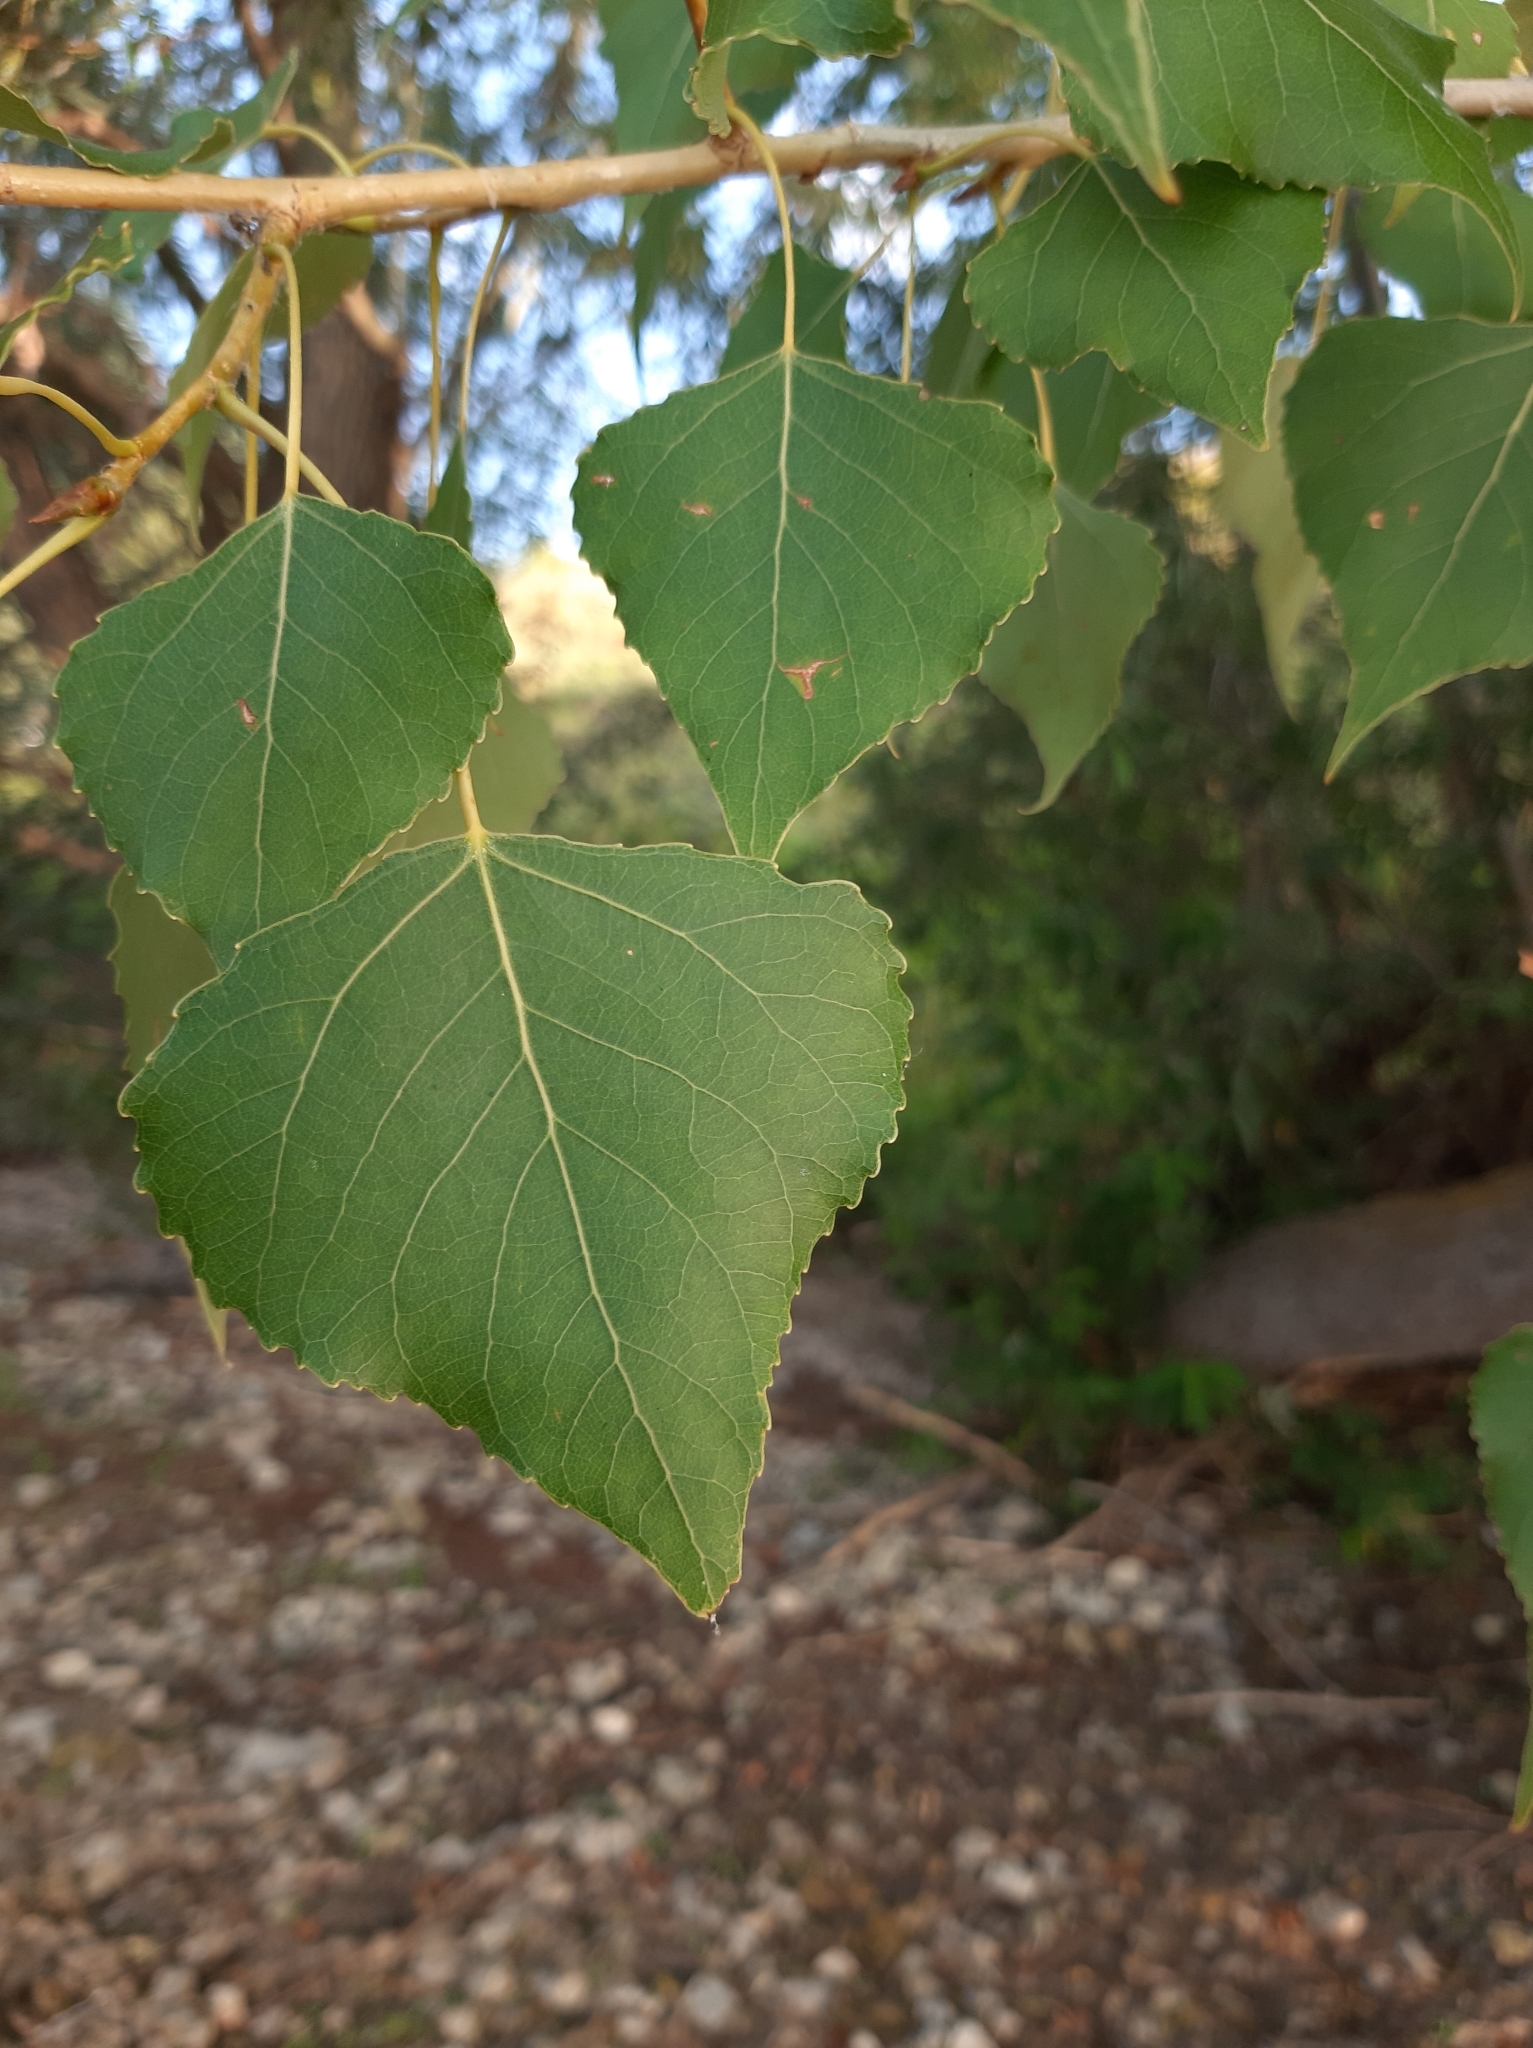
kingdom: Plantae
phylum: Tracheophyta
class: Magnoliopsida
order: Malpighiales
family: Salicaceae
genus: Populus
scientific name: Populus nigra
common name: Black poplar
